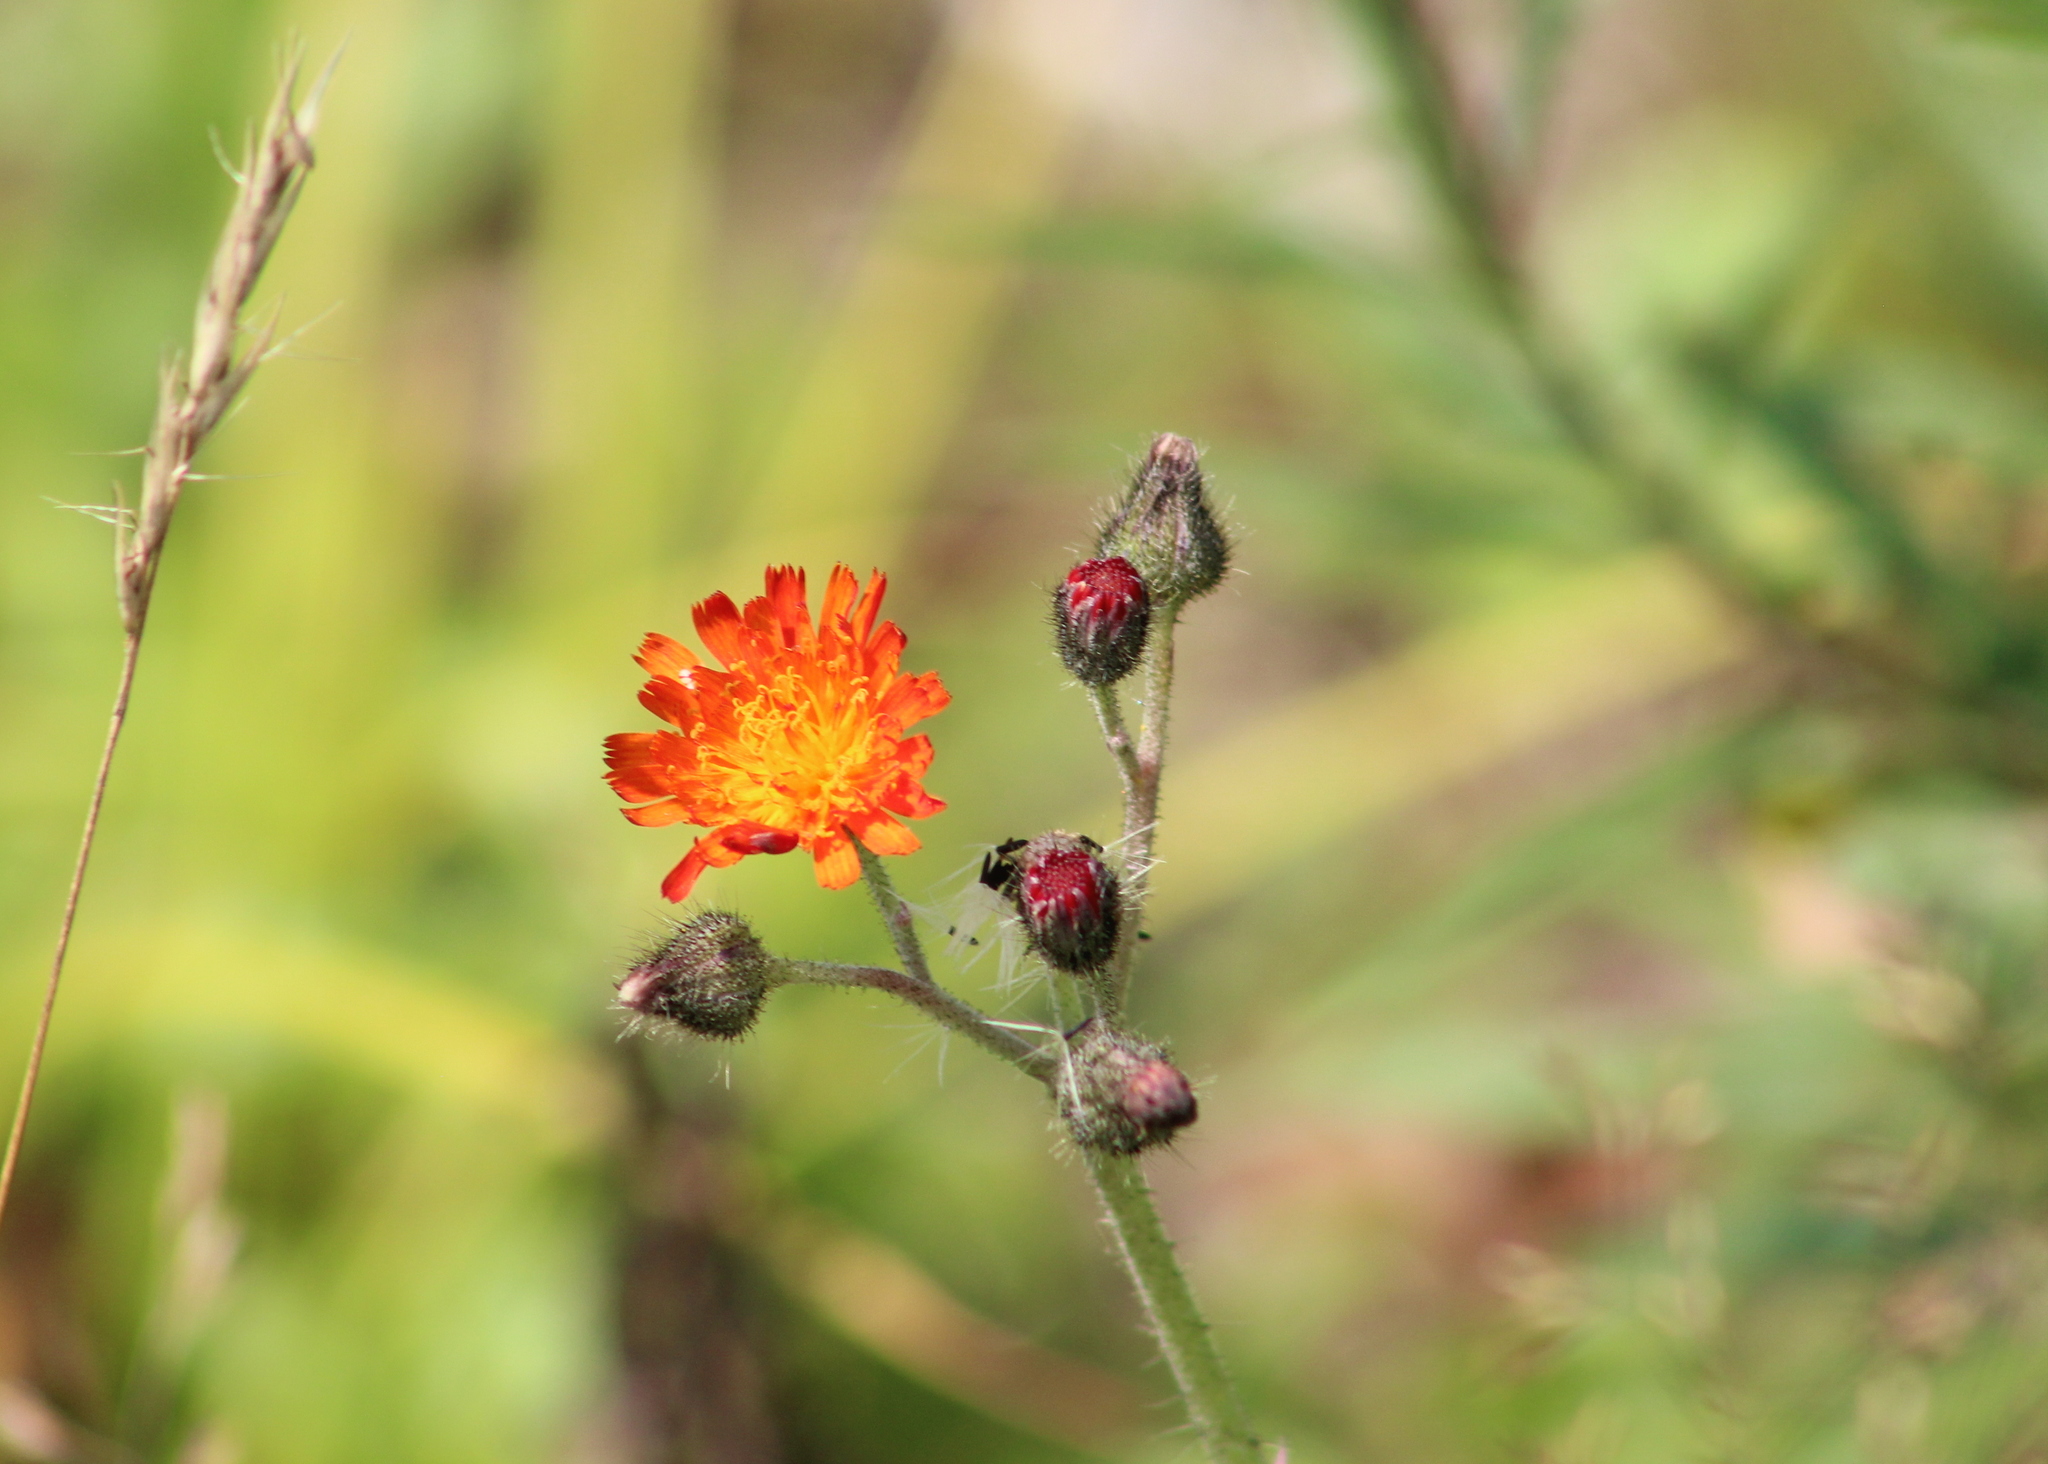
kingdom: Plantae
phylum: Tracheophyta
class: Magnoliopsida
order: Asterales
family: Asteraceae
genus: Pilosella
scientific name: Pilosella aurantiaca
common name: Fox-and-cubs
